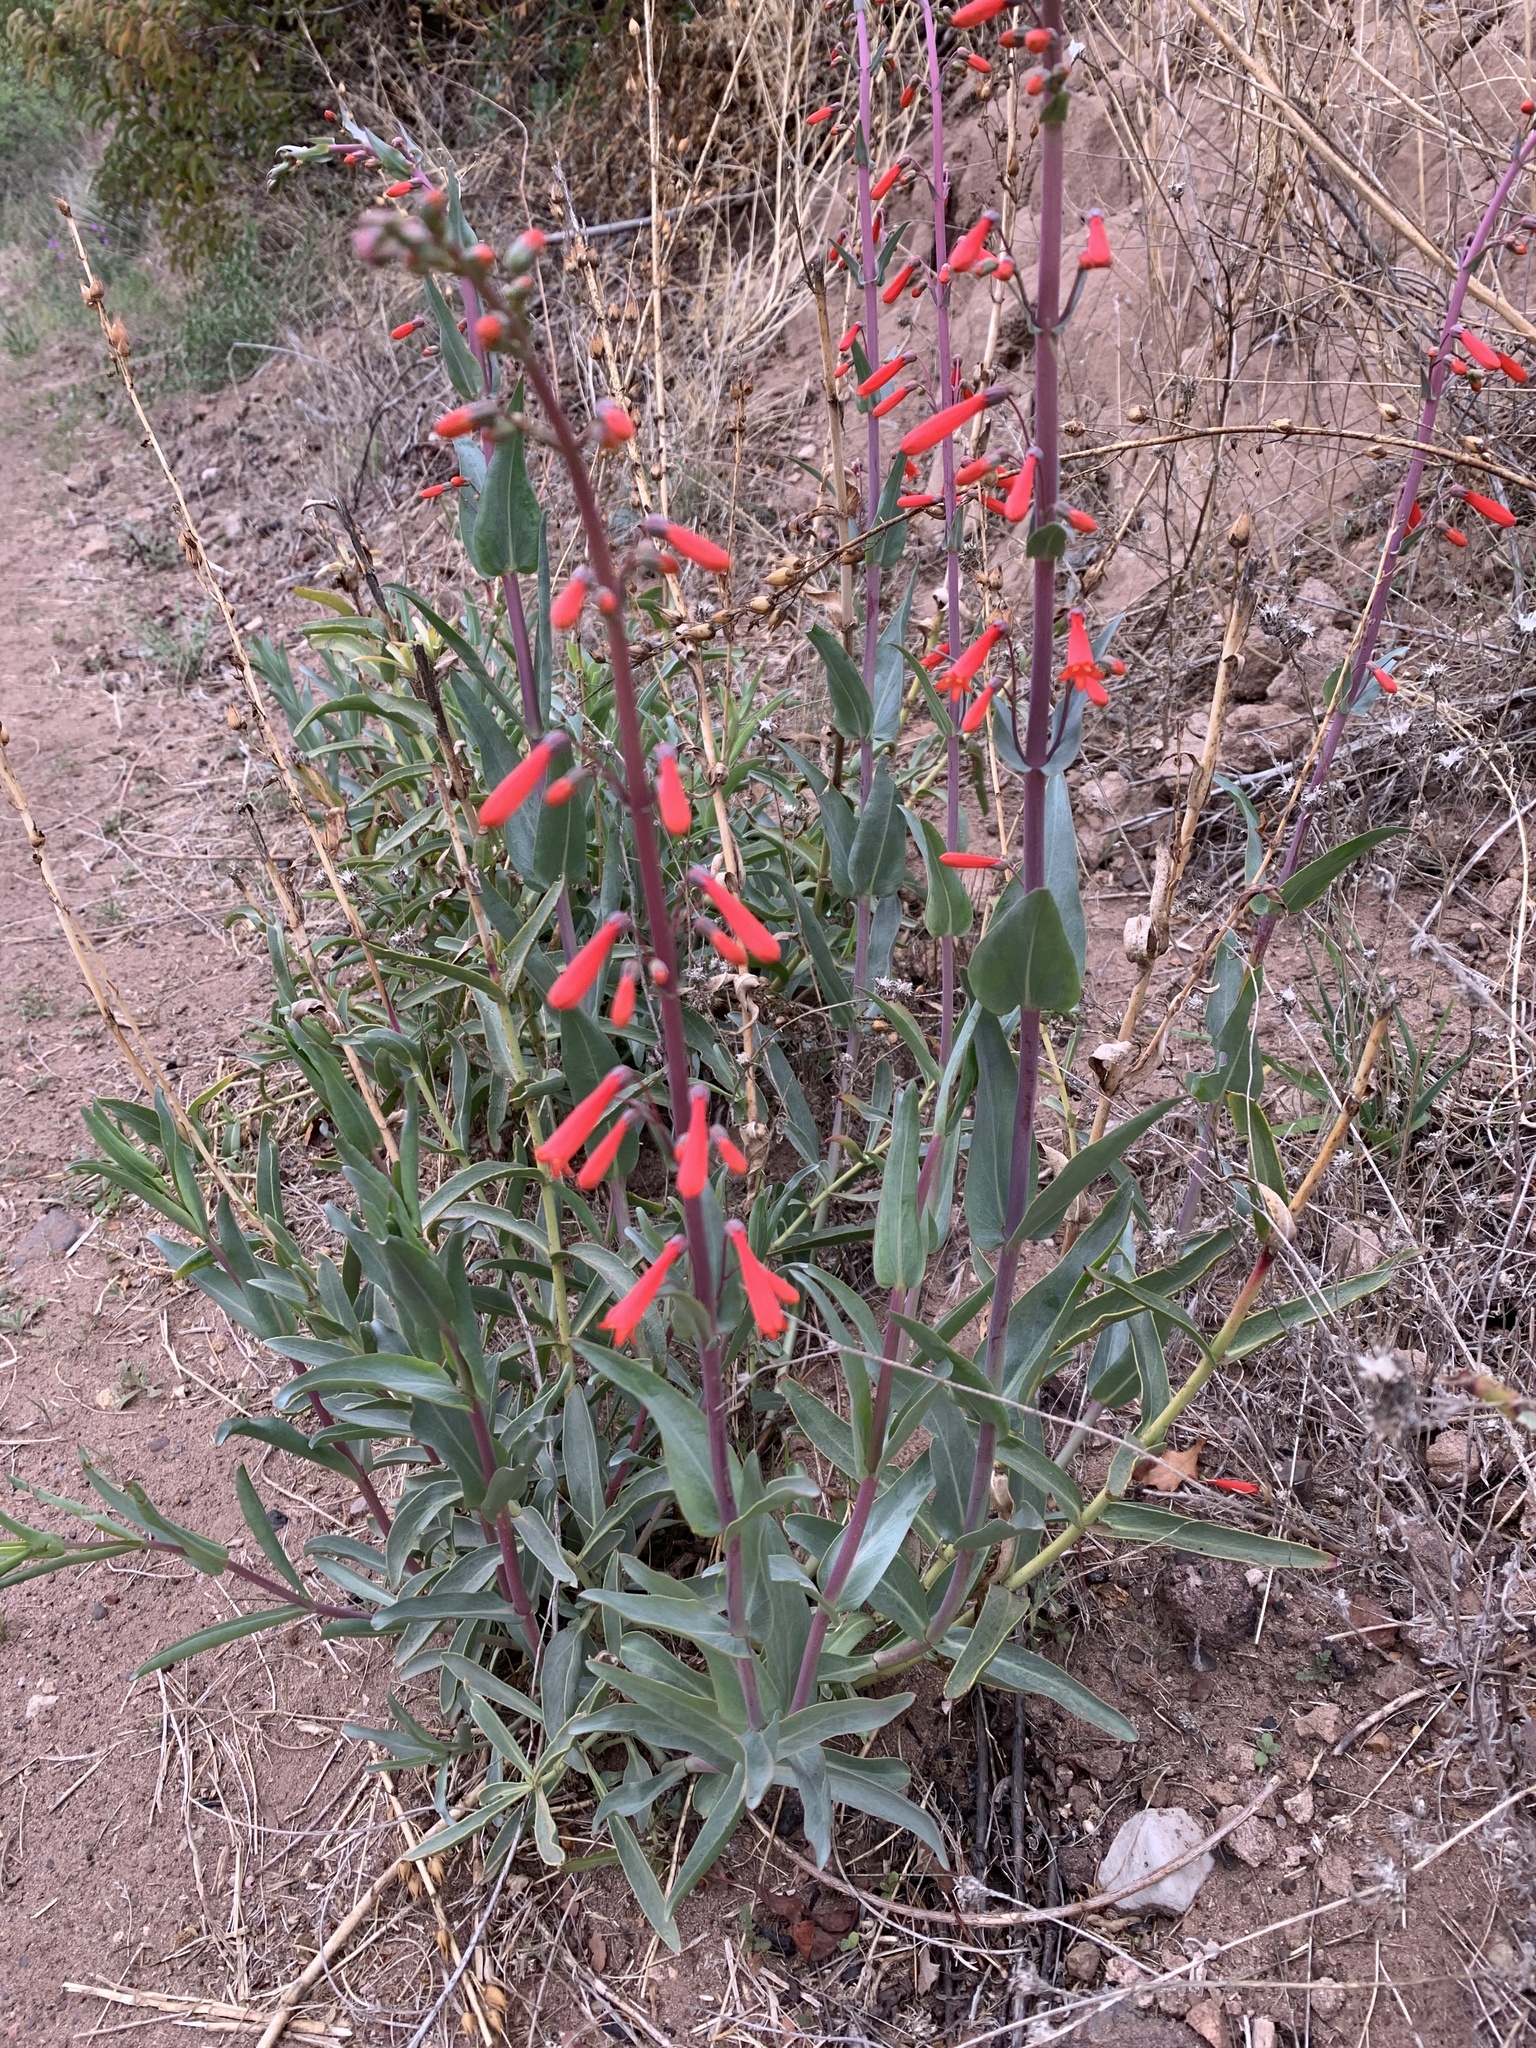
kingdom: Plantae
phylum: Tracheophyta
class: Magnoliopsida
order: Lamiales
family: Plantaginaceae
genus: Penstemon
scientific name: Penstemon centranthifolius
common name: Scarlet bugler
